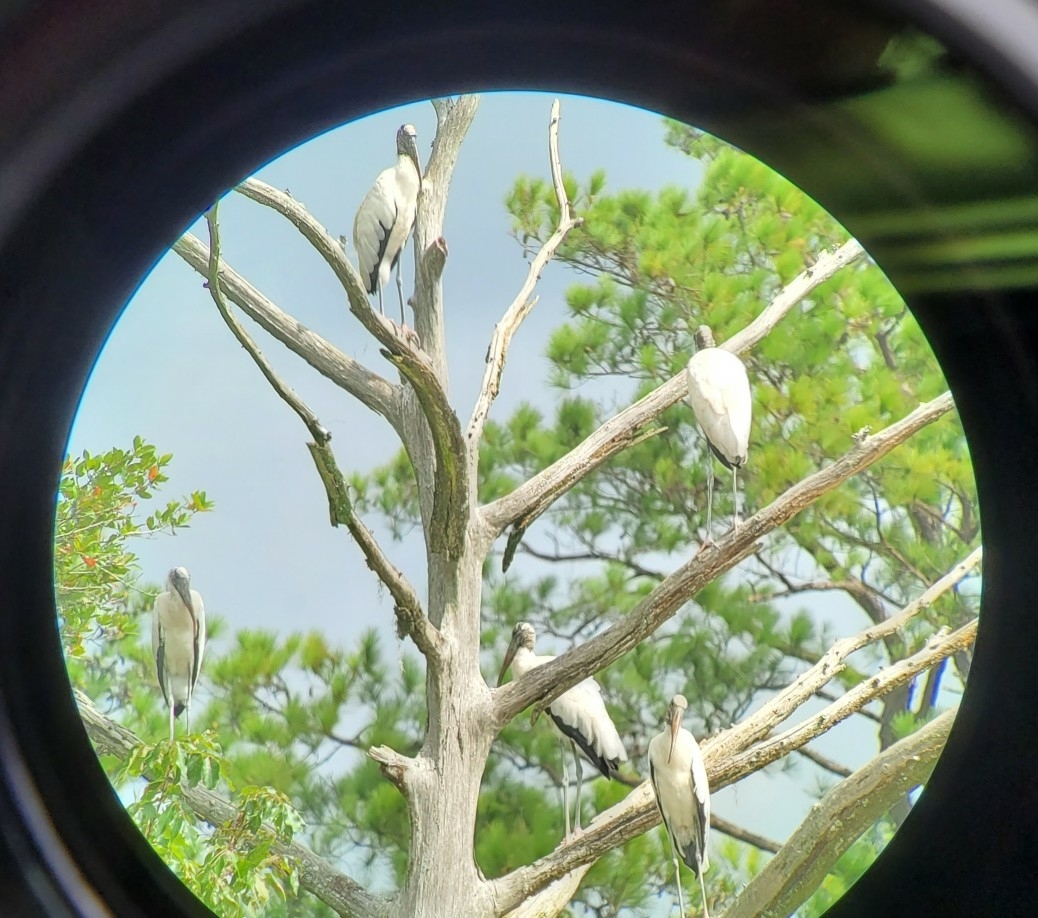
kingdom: Animalia
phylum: Chordata
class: Aves
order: Ciconiiformes
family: Ciconiidae
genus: Mycteria
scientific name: Mycteria americana
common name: Wood stork
